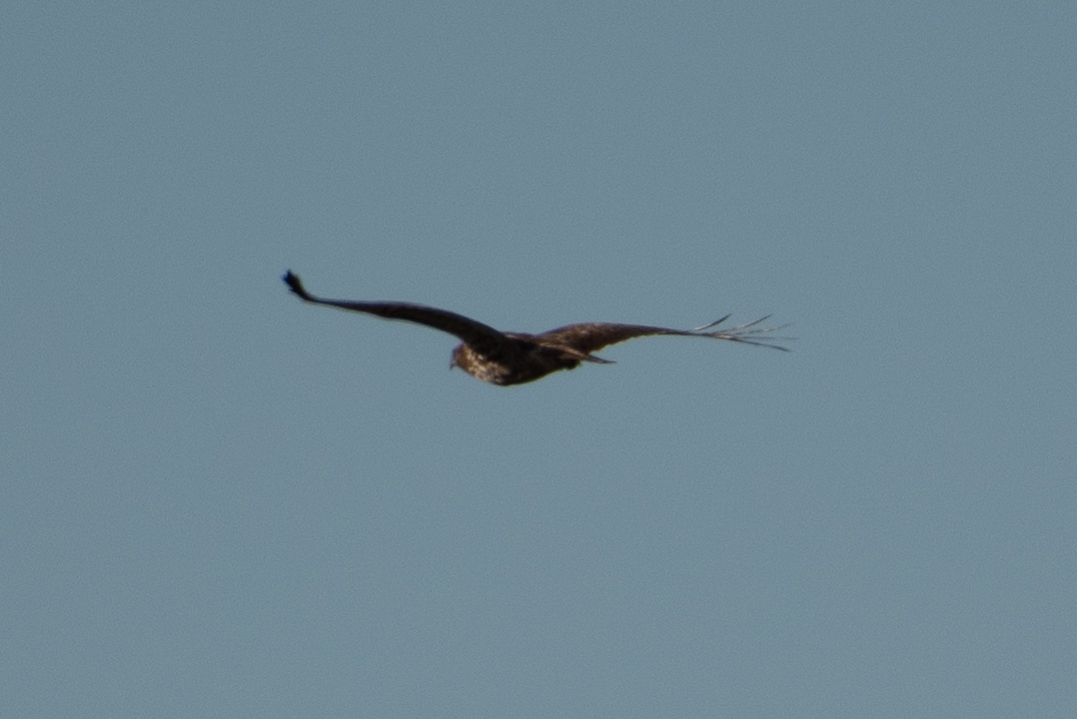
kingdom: Animalia
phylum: Chordata
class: Aves
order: Accipitriformes
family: Accipitridae
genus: Buteo
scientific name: Buteo jamaicensis
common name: Red-tailed hawk
